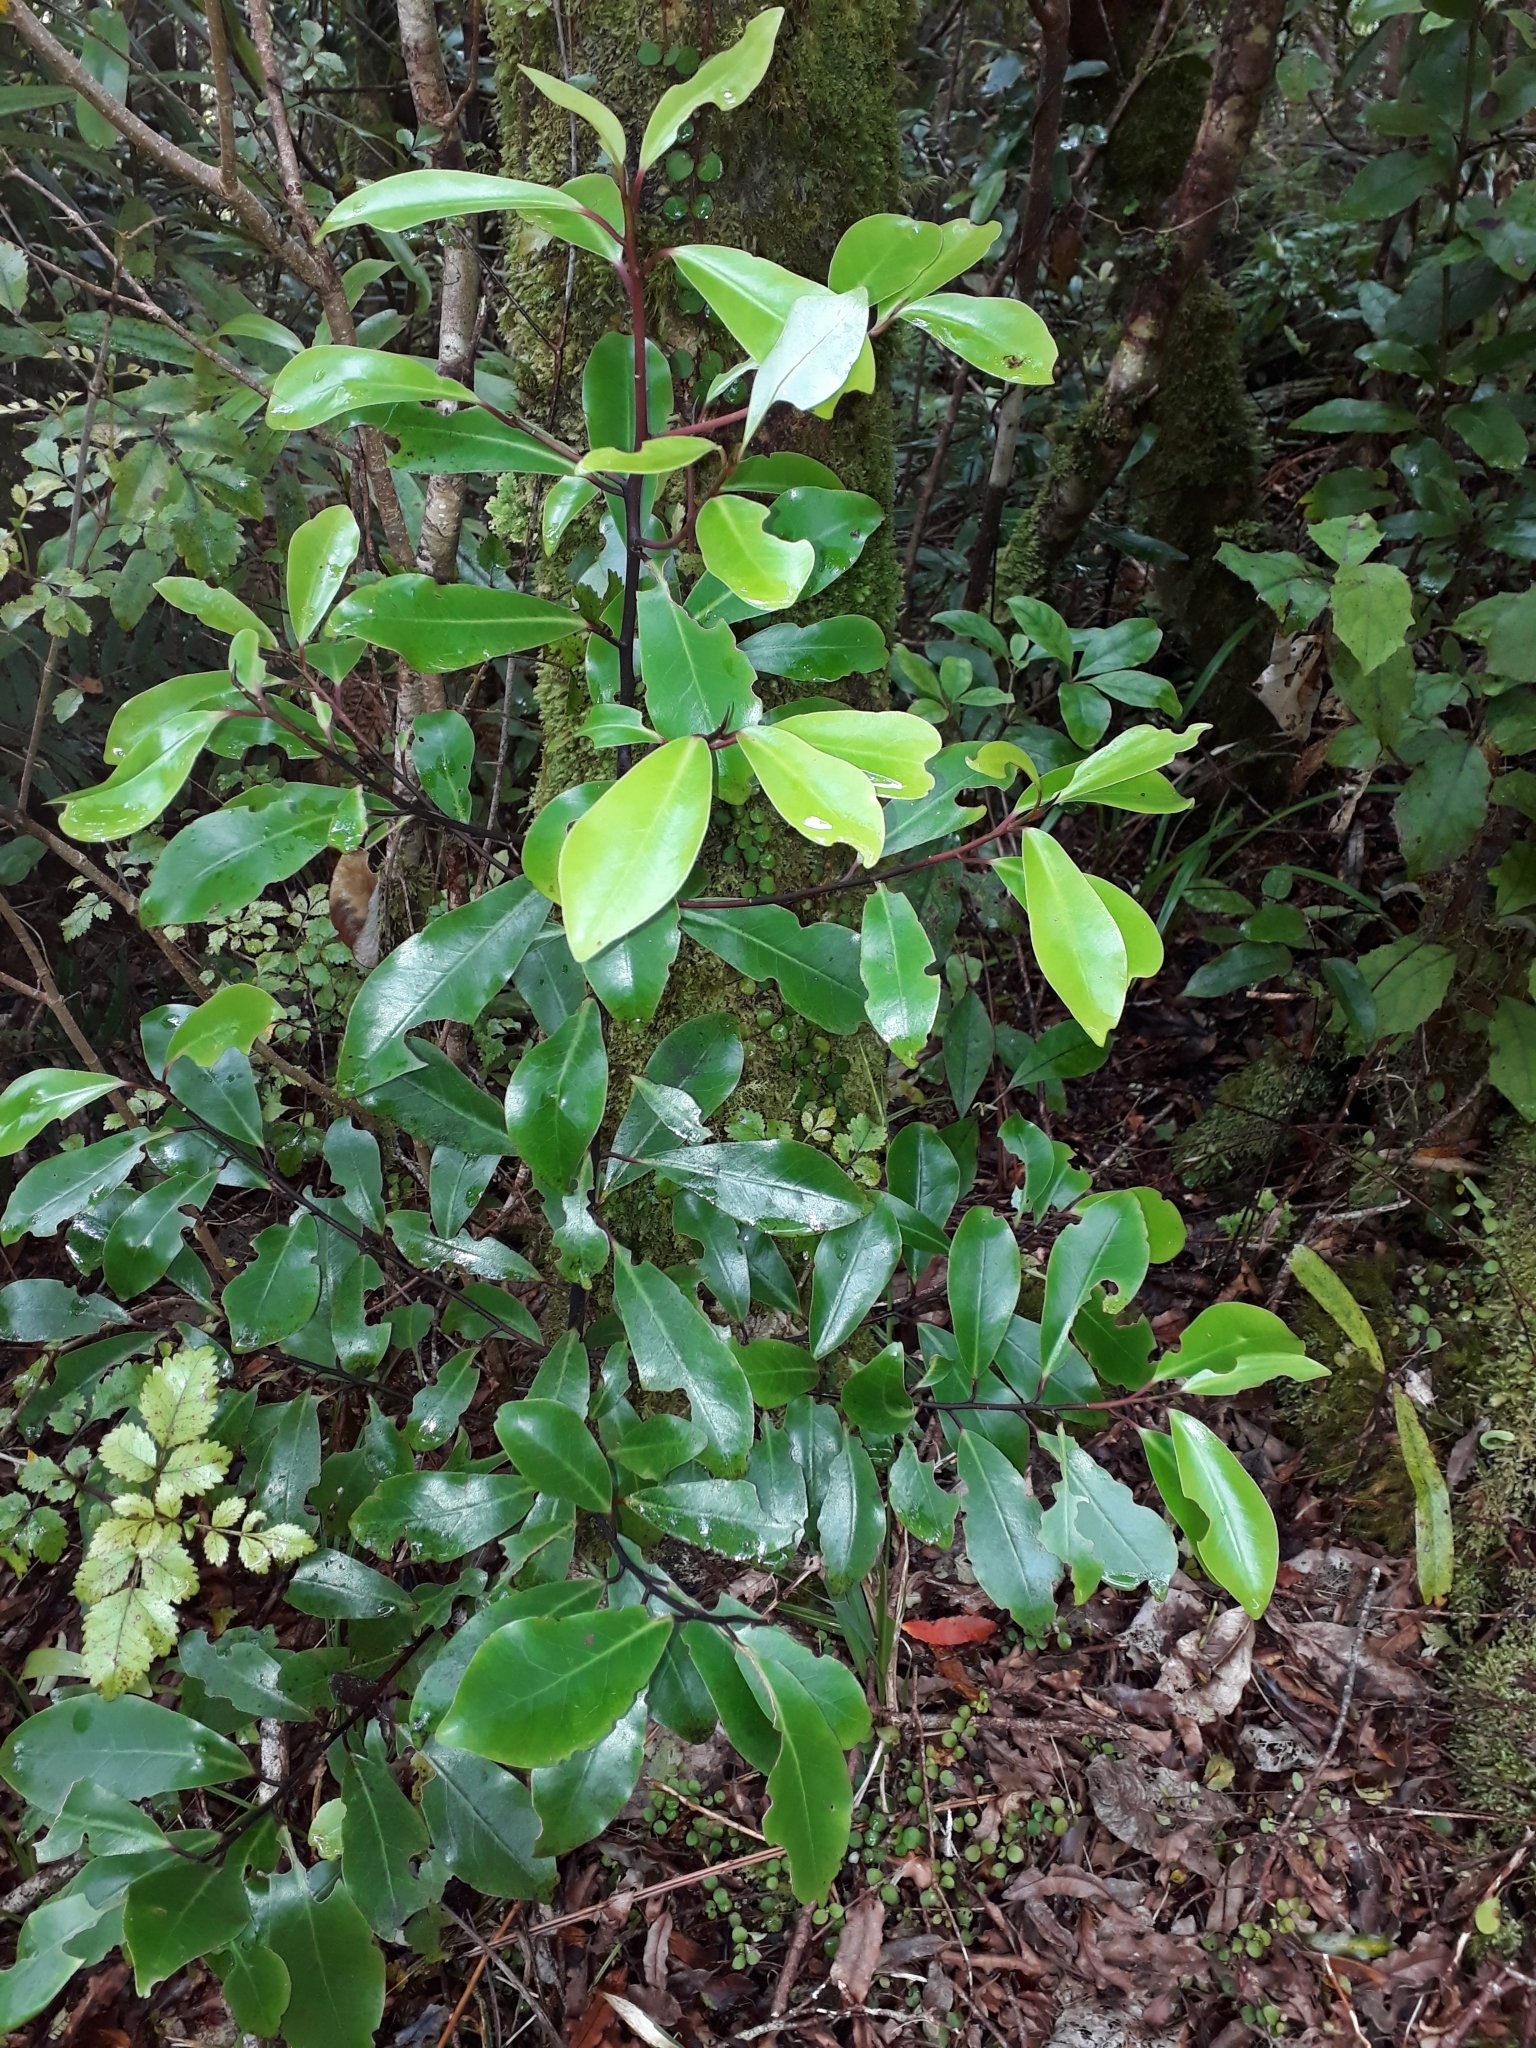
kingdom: Plantae
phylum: Tracheophyta
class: Magnoliopsida
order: Canellales
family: Winteraceae
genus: Pseudowintera
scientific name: Pseudowintera axillaris
